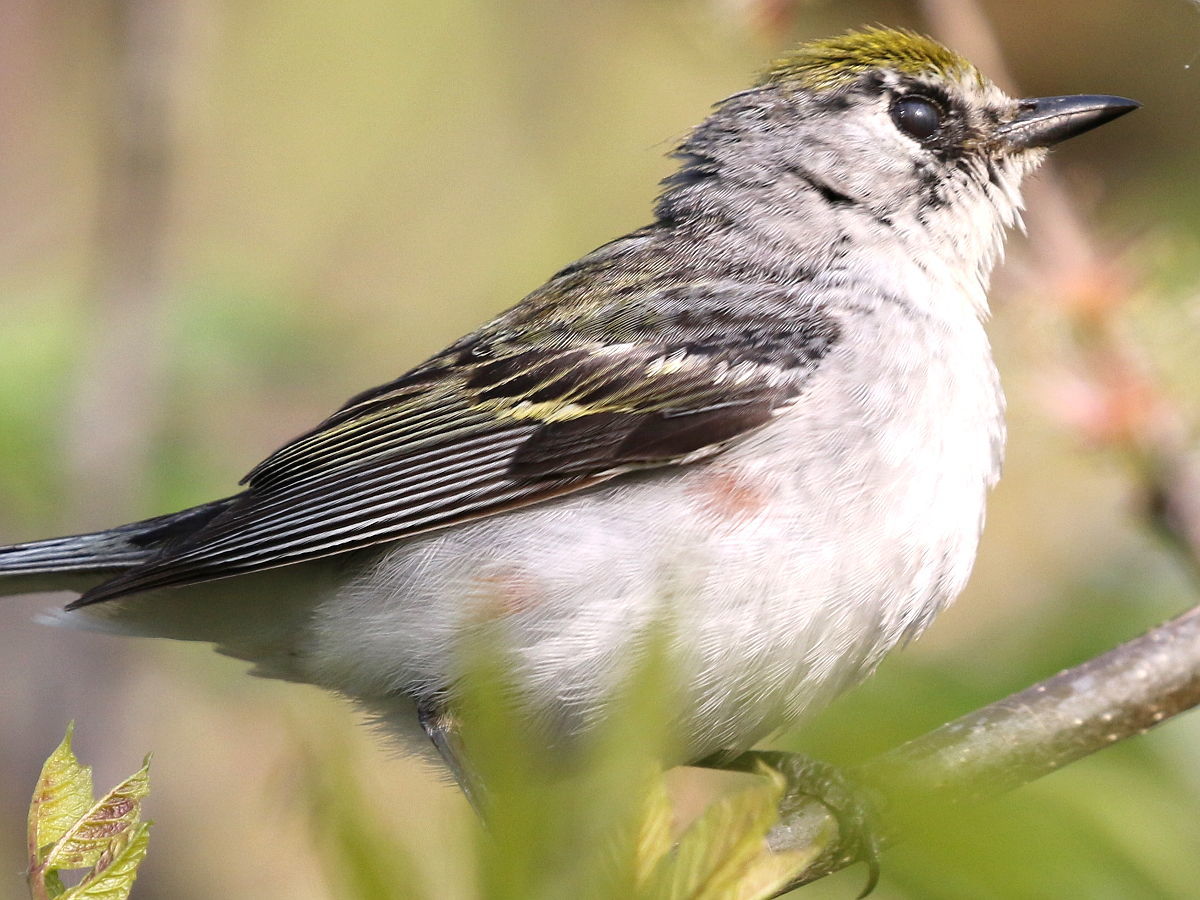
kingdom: Animalia
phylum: Chordata
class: Aves
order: Passeriformes
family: Parulidae
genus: Setophaga
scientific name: Setophaga pensylvanica
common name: Chestnut-sided warbler
